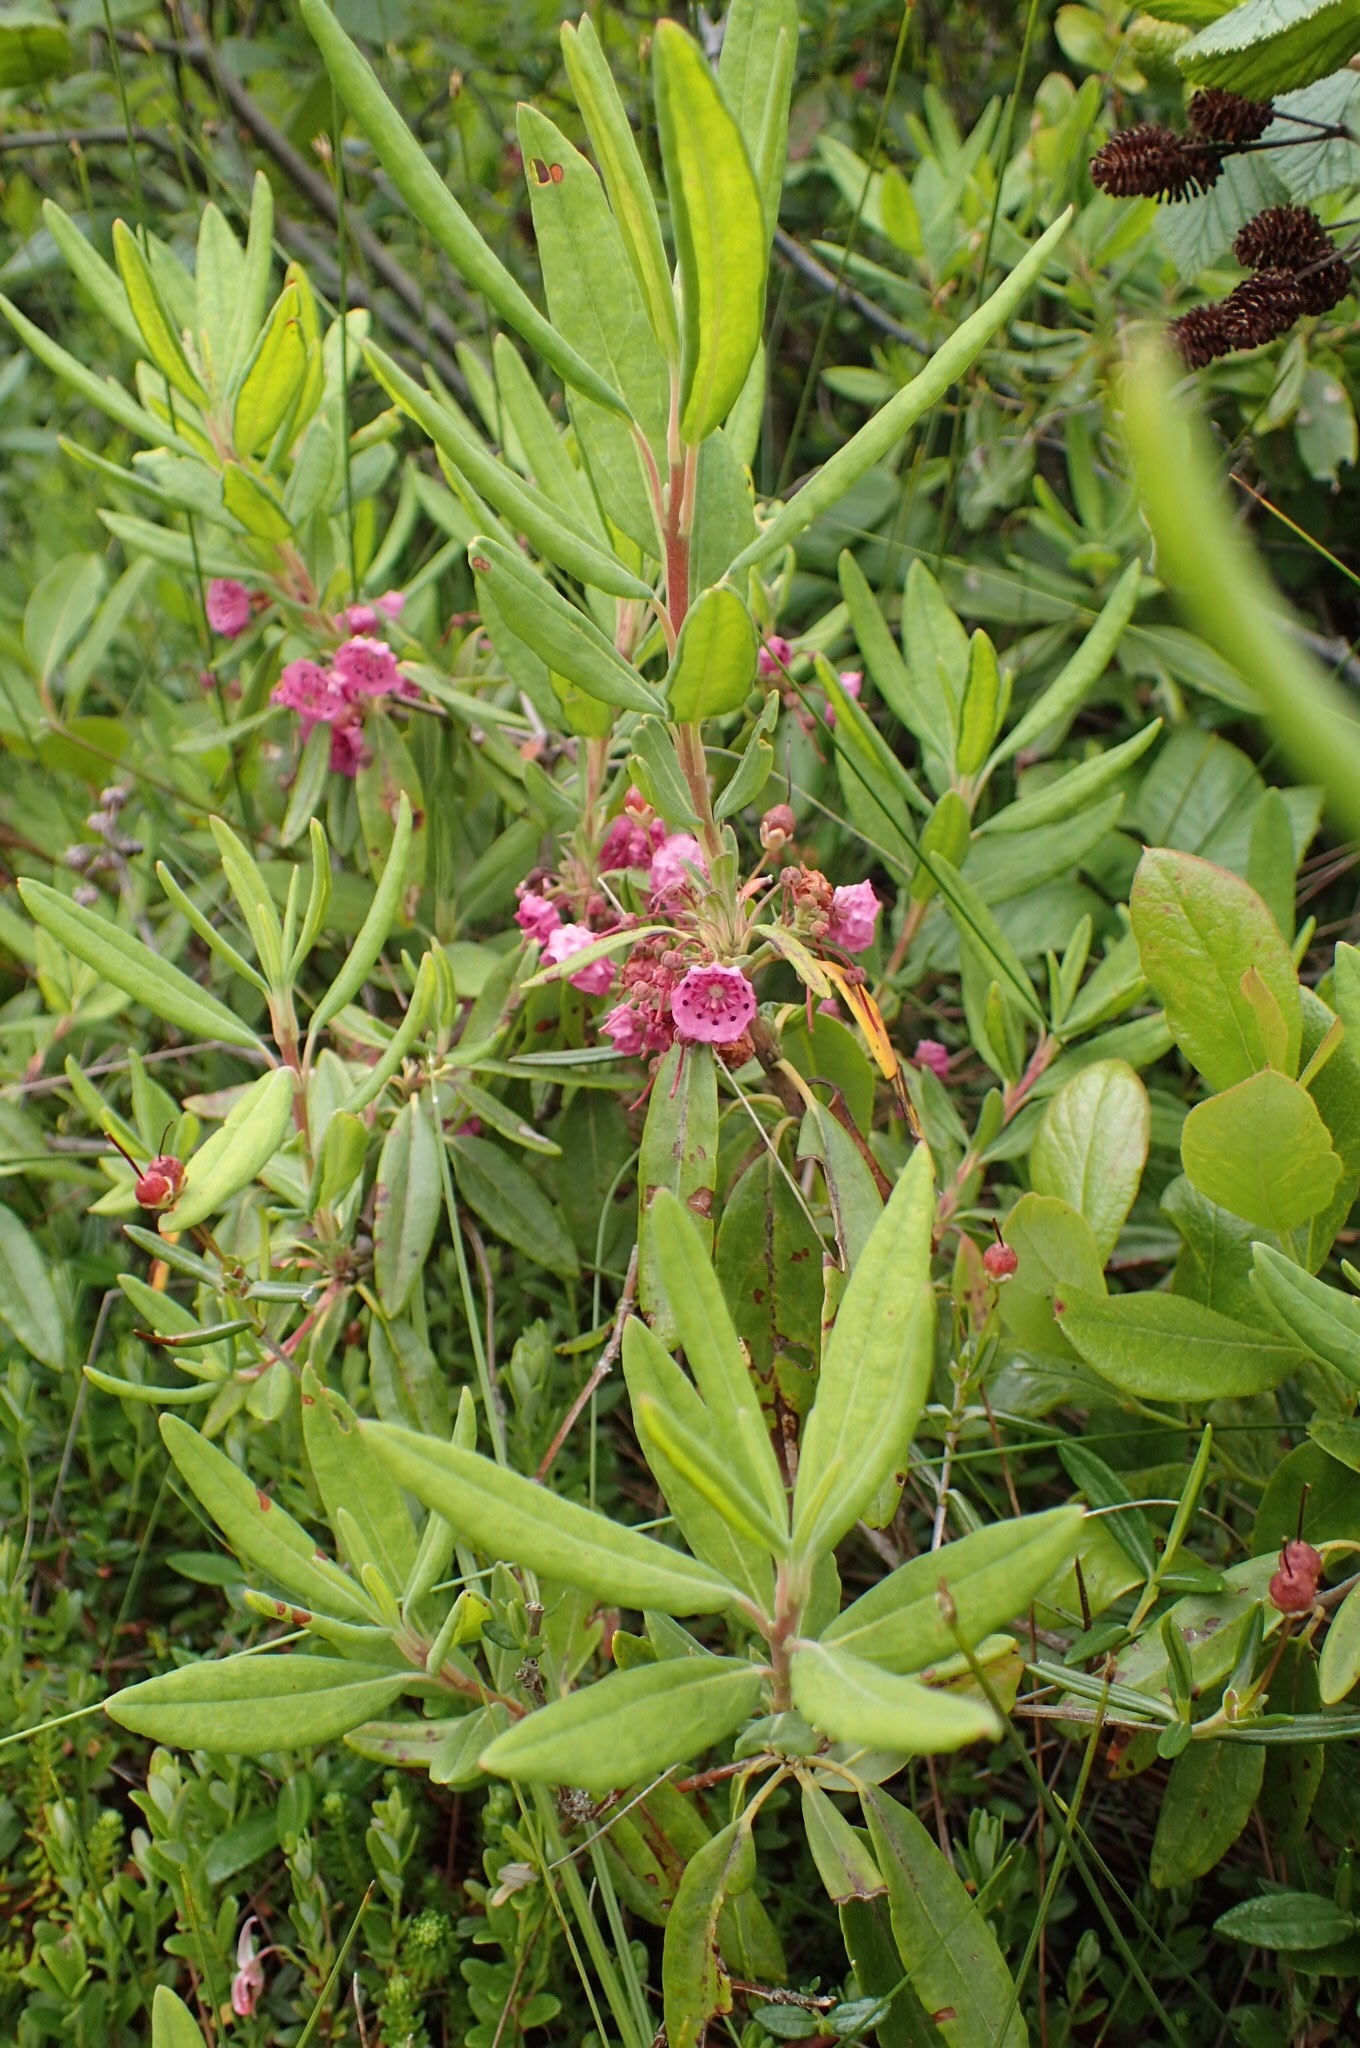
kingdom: Plantae
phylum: Tracheophyta
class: Magnoliopsida
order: Ericales
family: Ericaceae
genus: Kalmia
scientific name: Kalmia angustifolia
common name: Sheep-laurel
